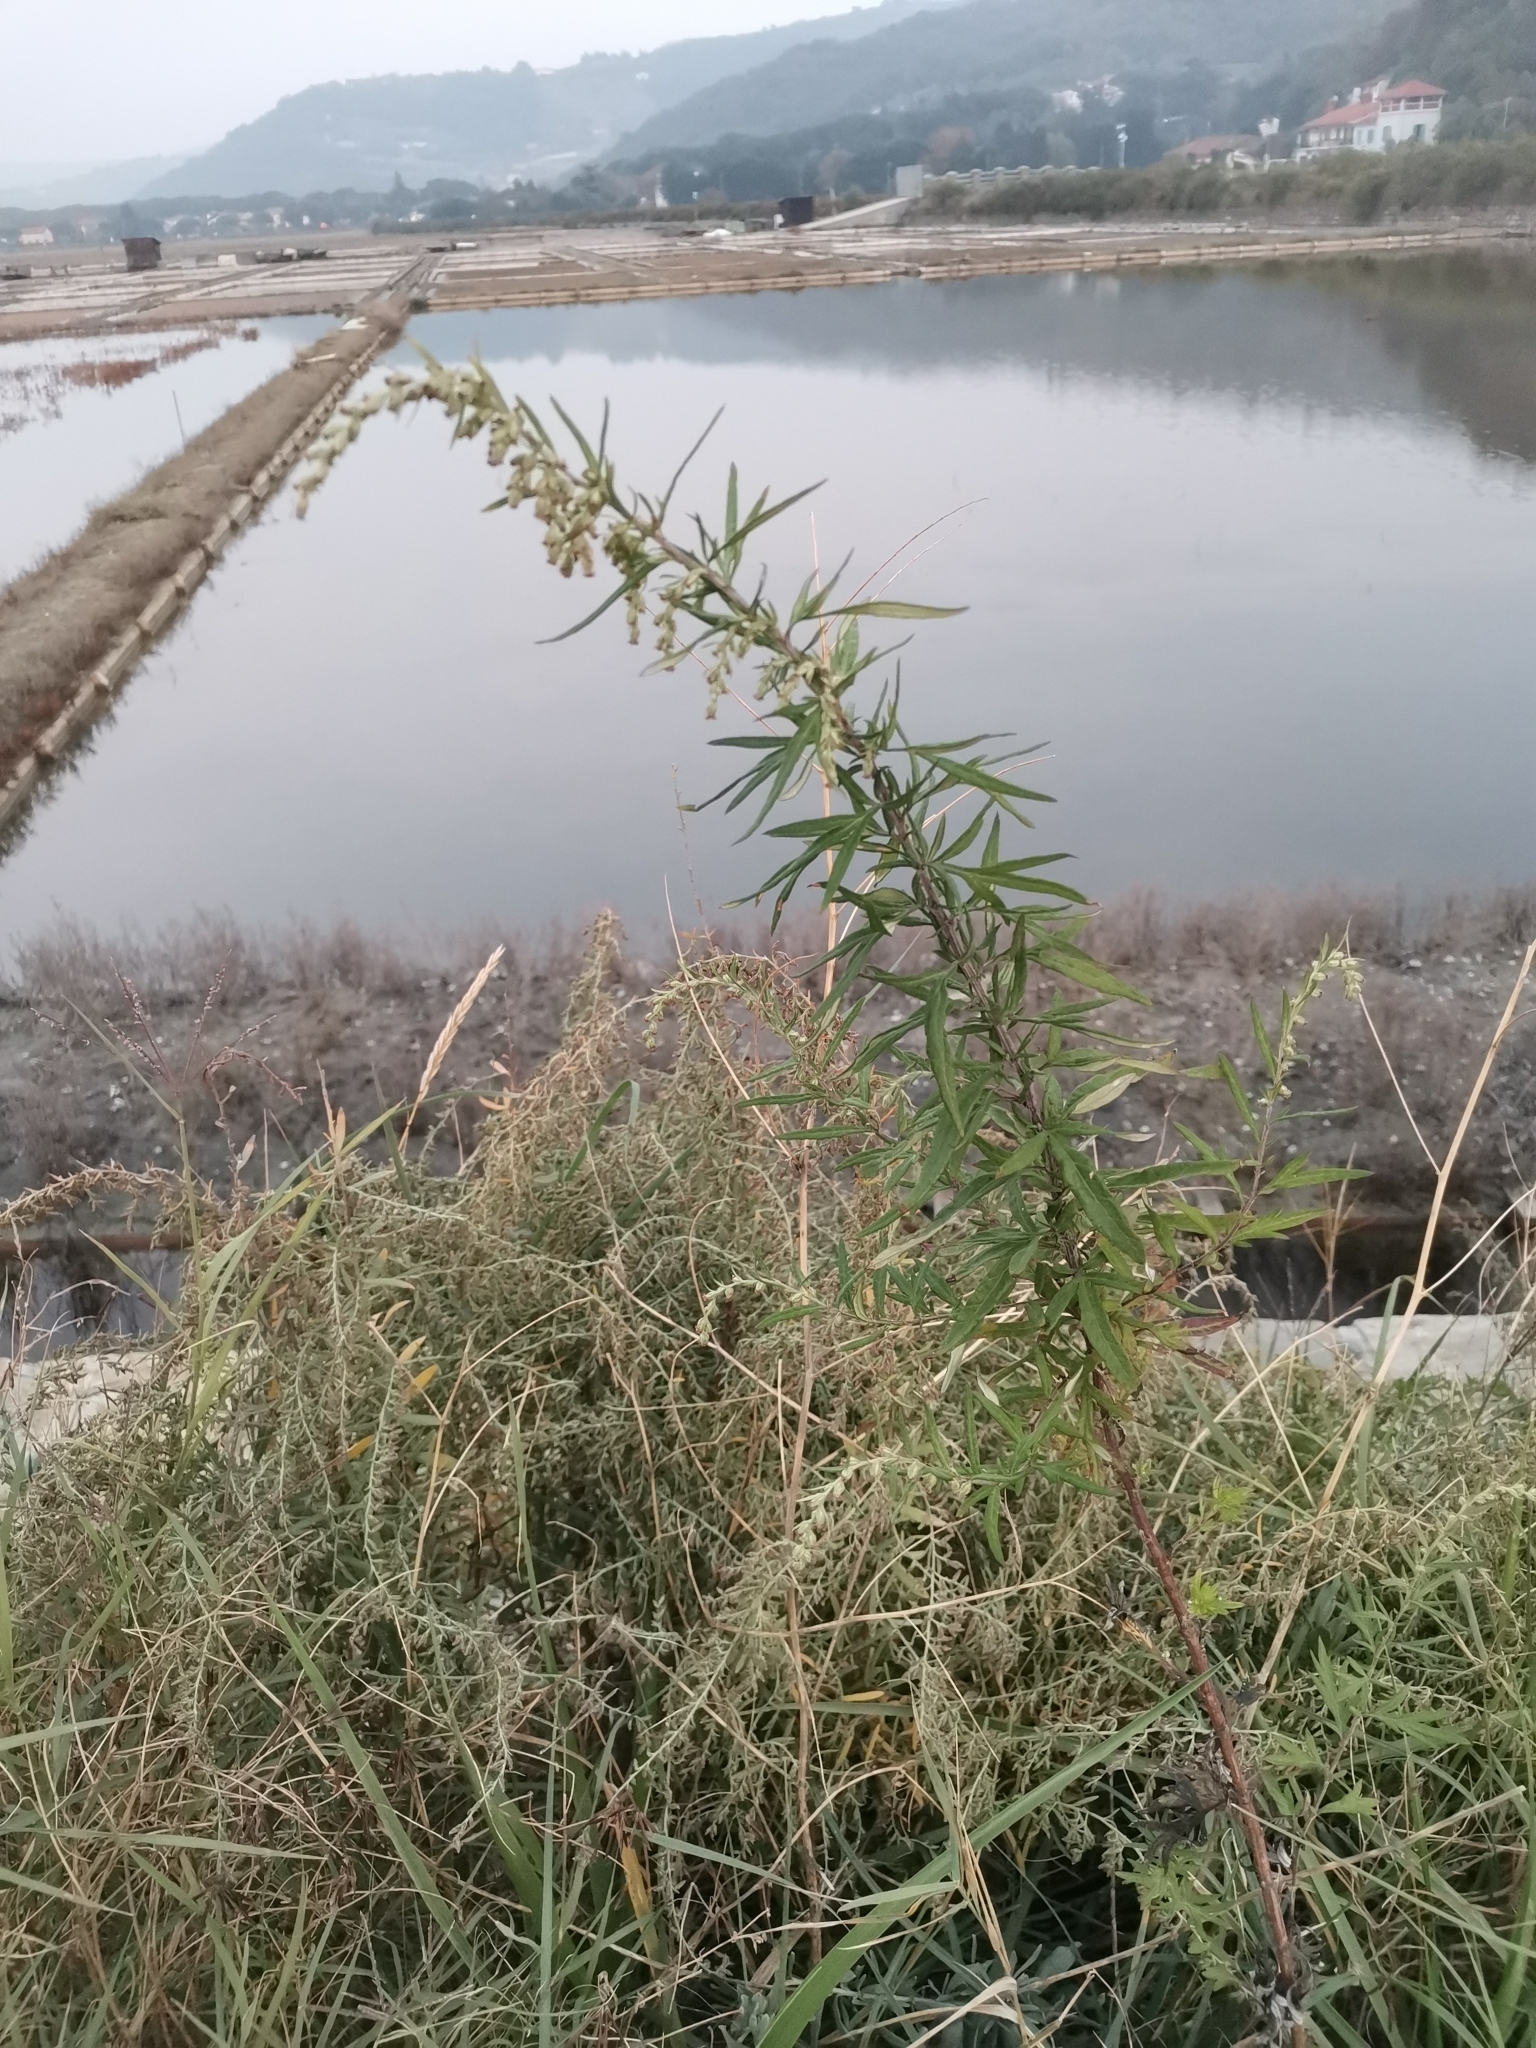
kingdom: Plantae
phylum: Tracheophyta
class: Magnoliopsida
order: Asterales
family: Asteraceae
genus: Artemisia
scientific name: Artemisia verlotiorum
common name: Chinese mugwort
